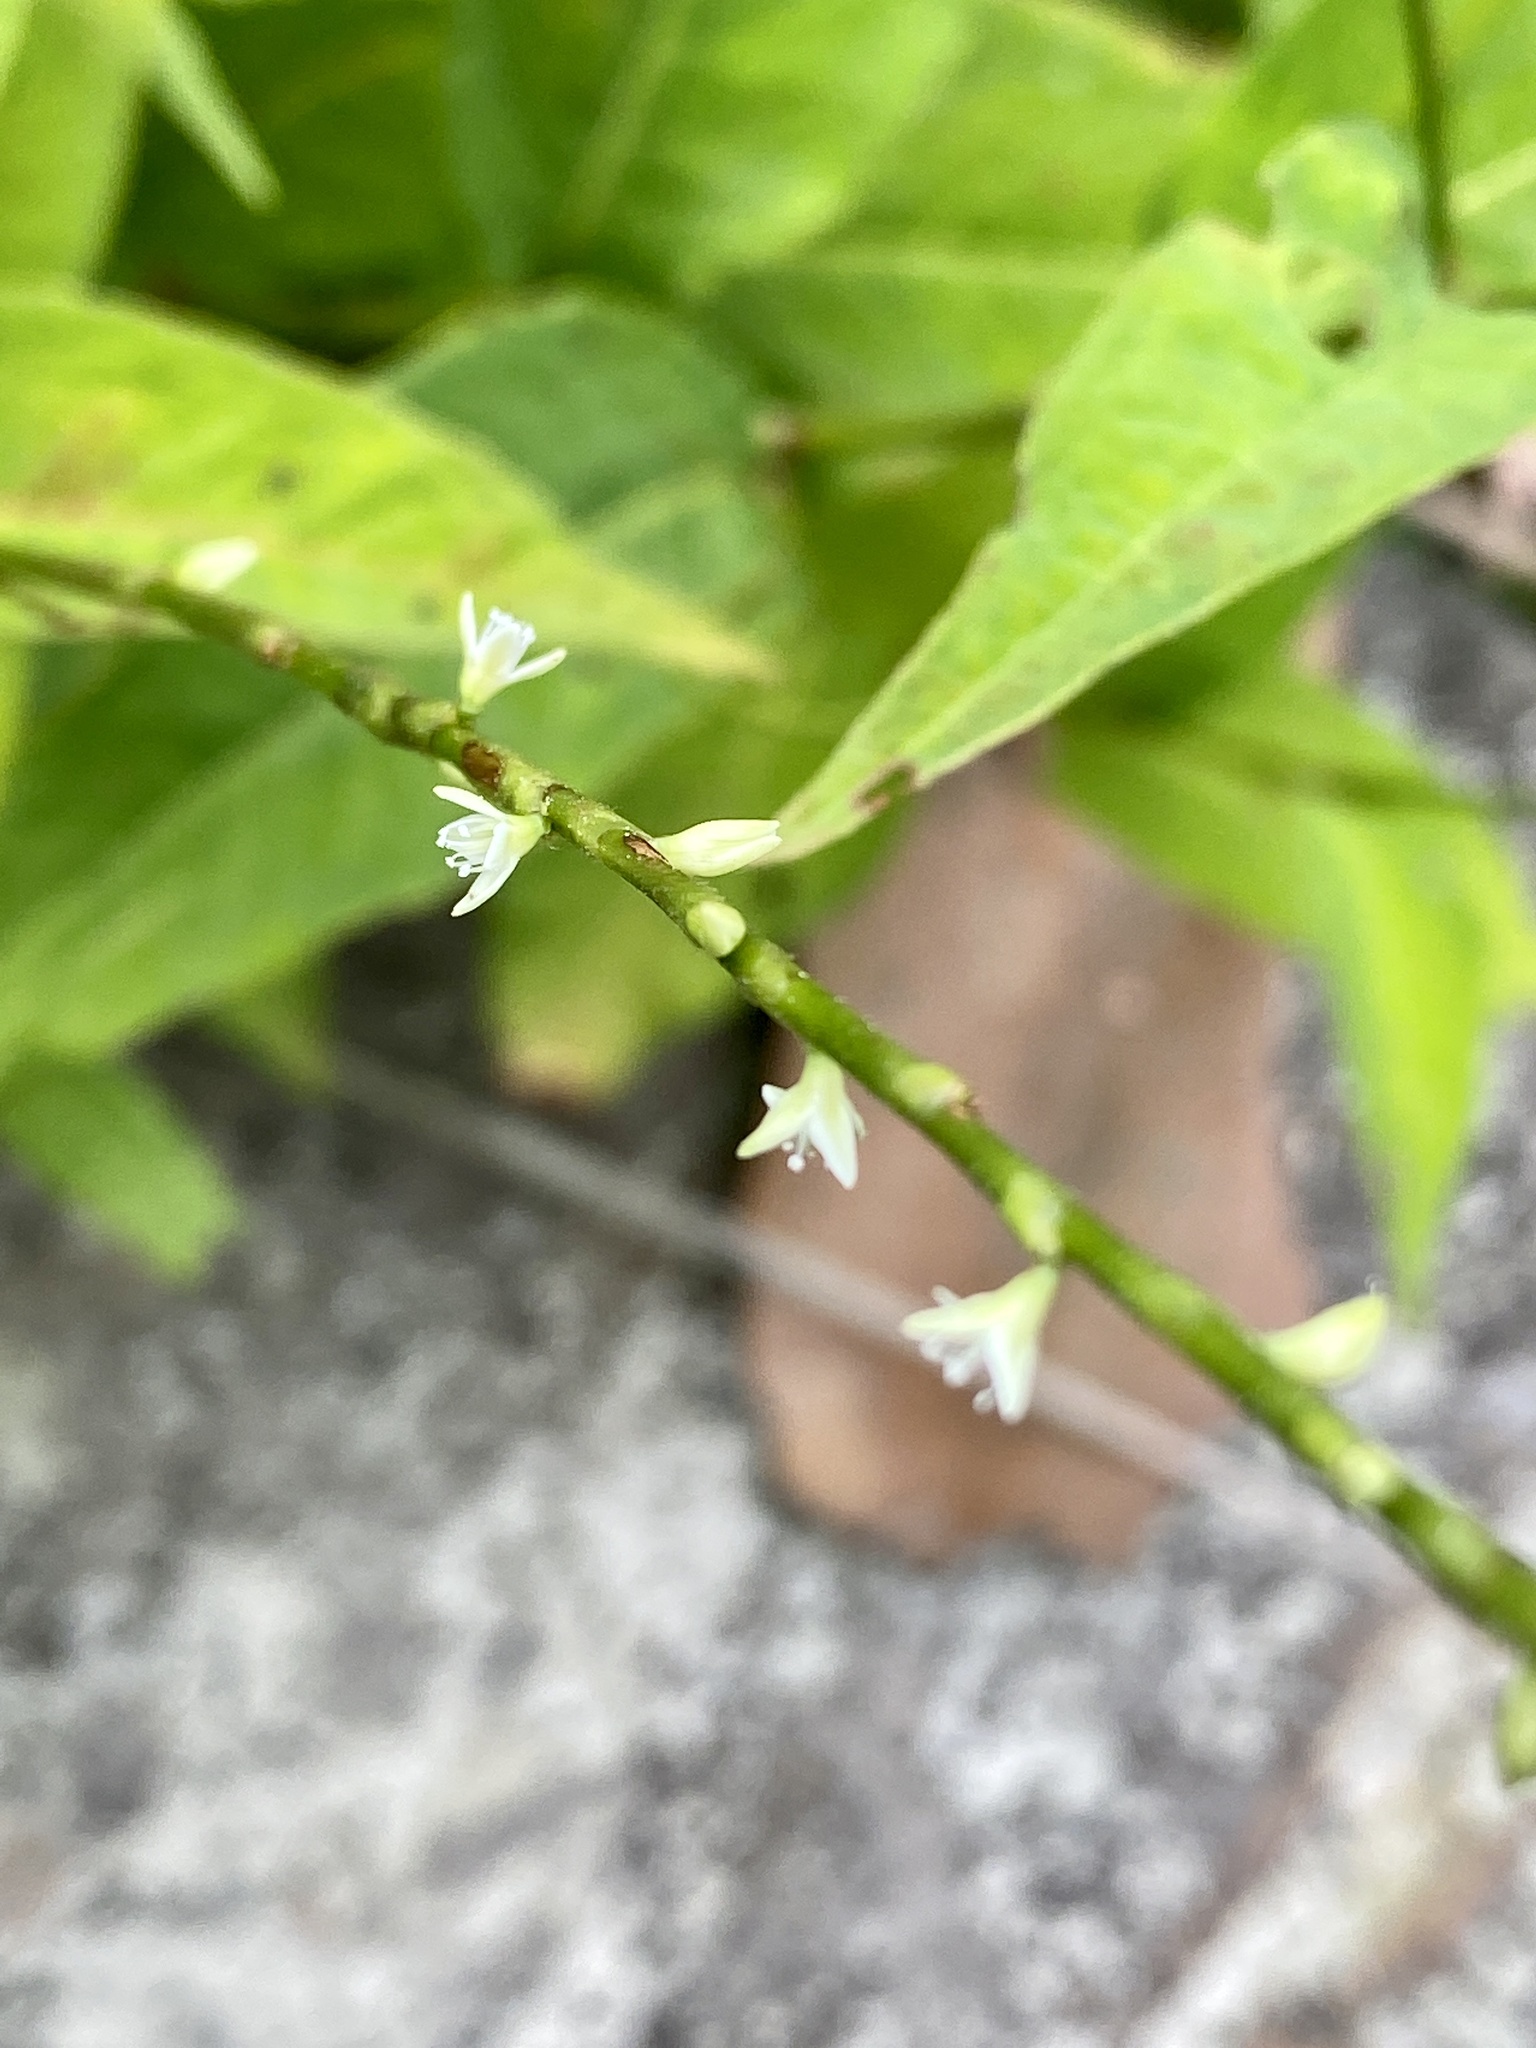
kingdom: Plantae
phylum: Tracheophyta
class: Magnoliopsida
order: Caryophyllales
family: Polygonaceae
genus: Persicaria
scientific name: Persicaria virginiana
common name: Jumpseed
